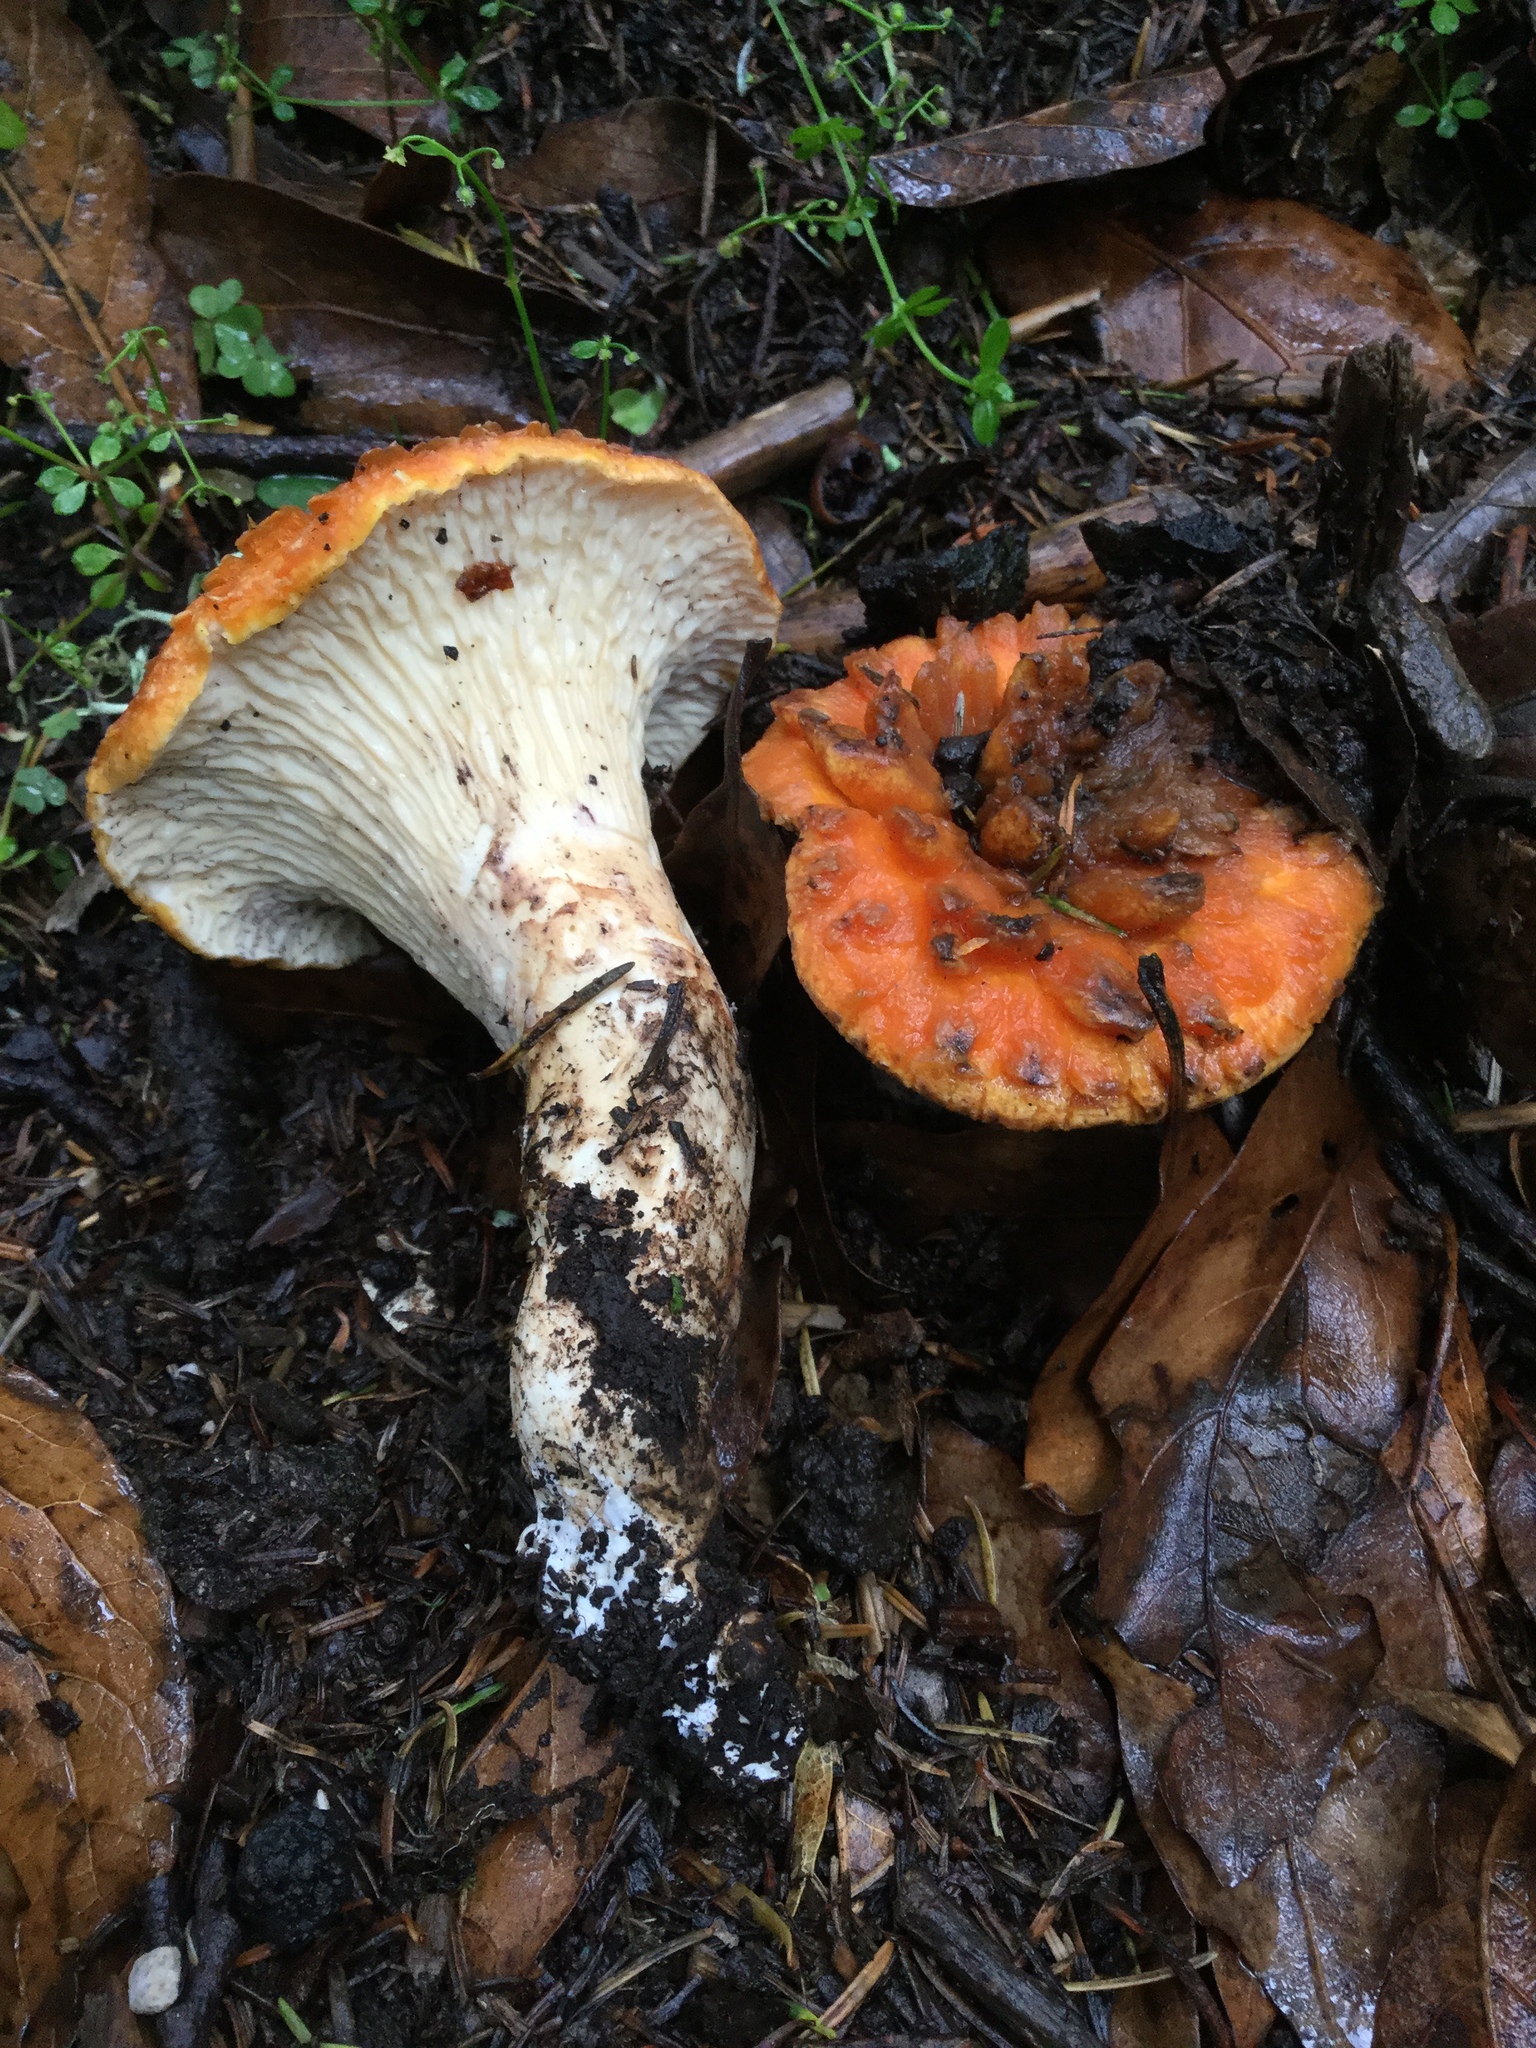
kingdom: Fungi
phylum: Basidiomycota
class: Agaricomycetes
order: Gomphales
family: Gomphaceae
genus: Turbinellus
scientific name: Turbinellus floccosus
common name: Scaly chanterelle
